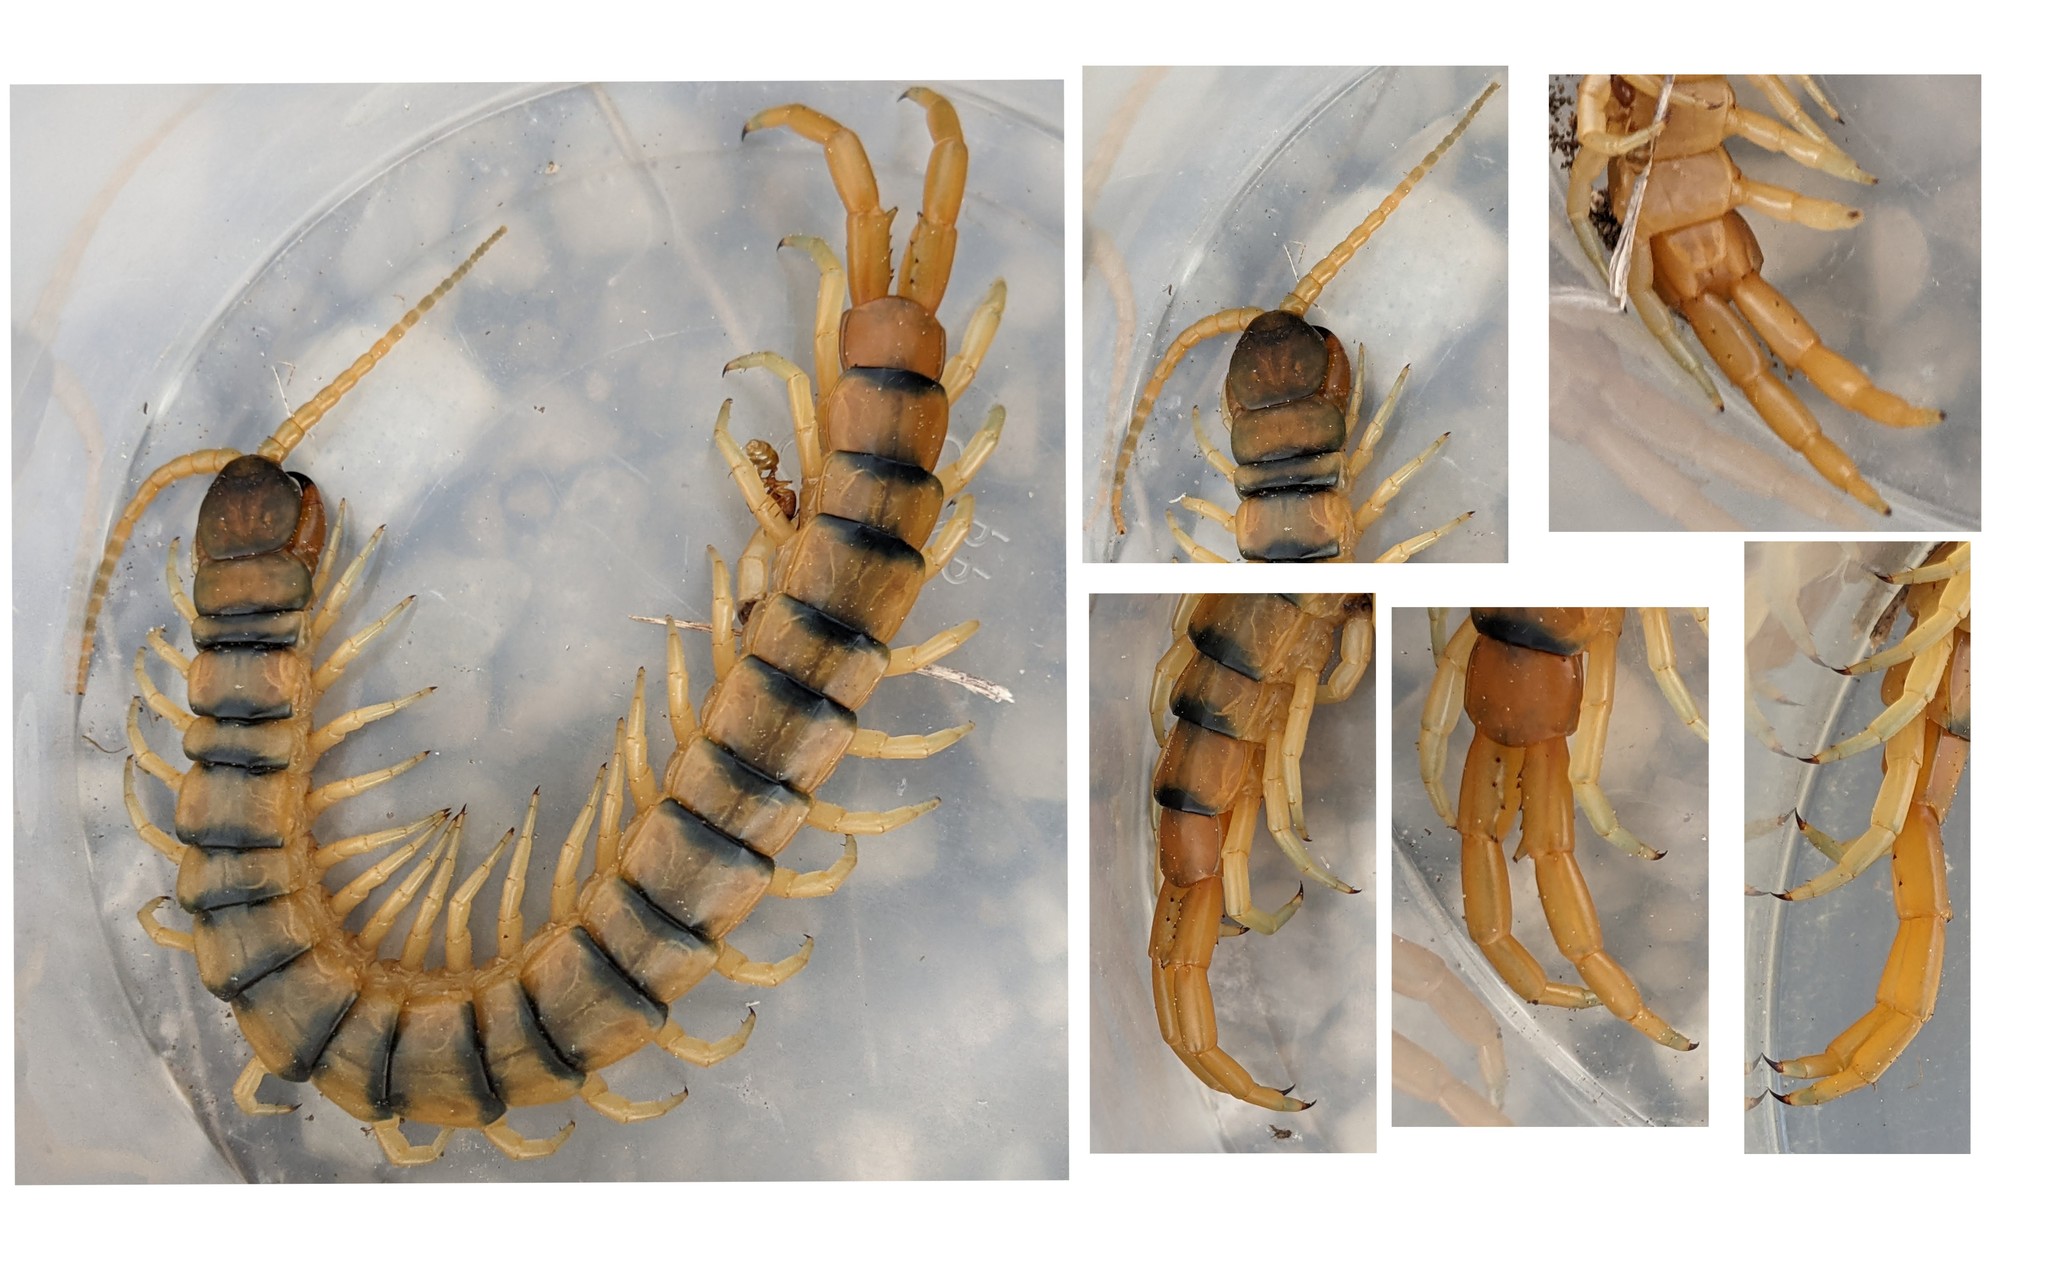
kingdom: Animalia
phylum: Arthropoda
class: Chilopoda
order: Scolopendromorpha
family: Scolopendridae
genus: Scolopendra
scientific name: Scolopendra cingulata
